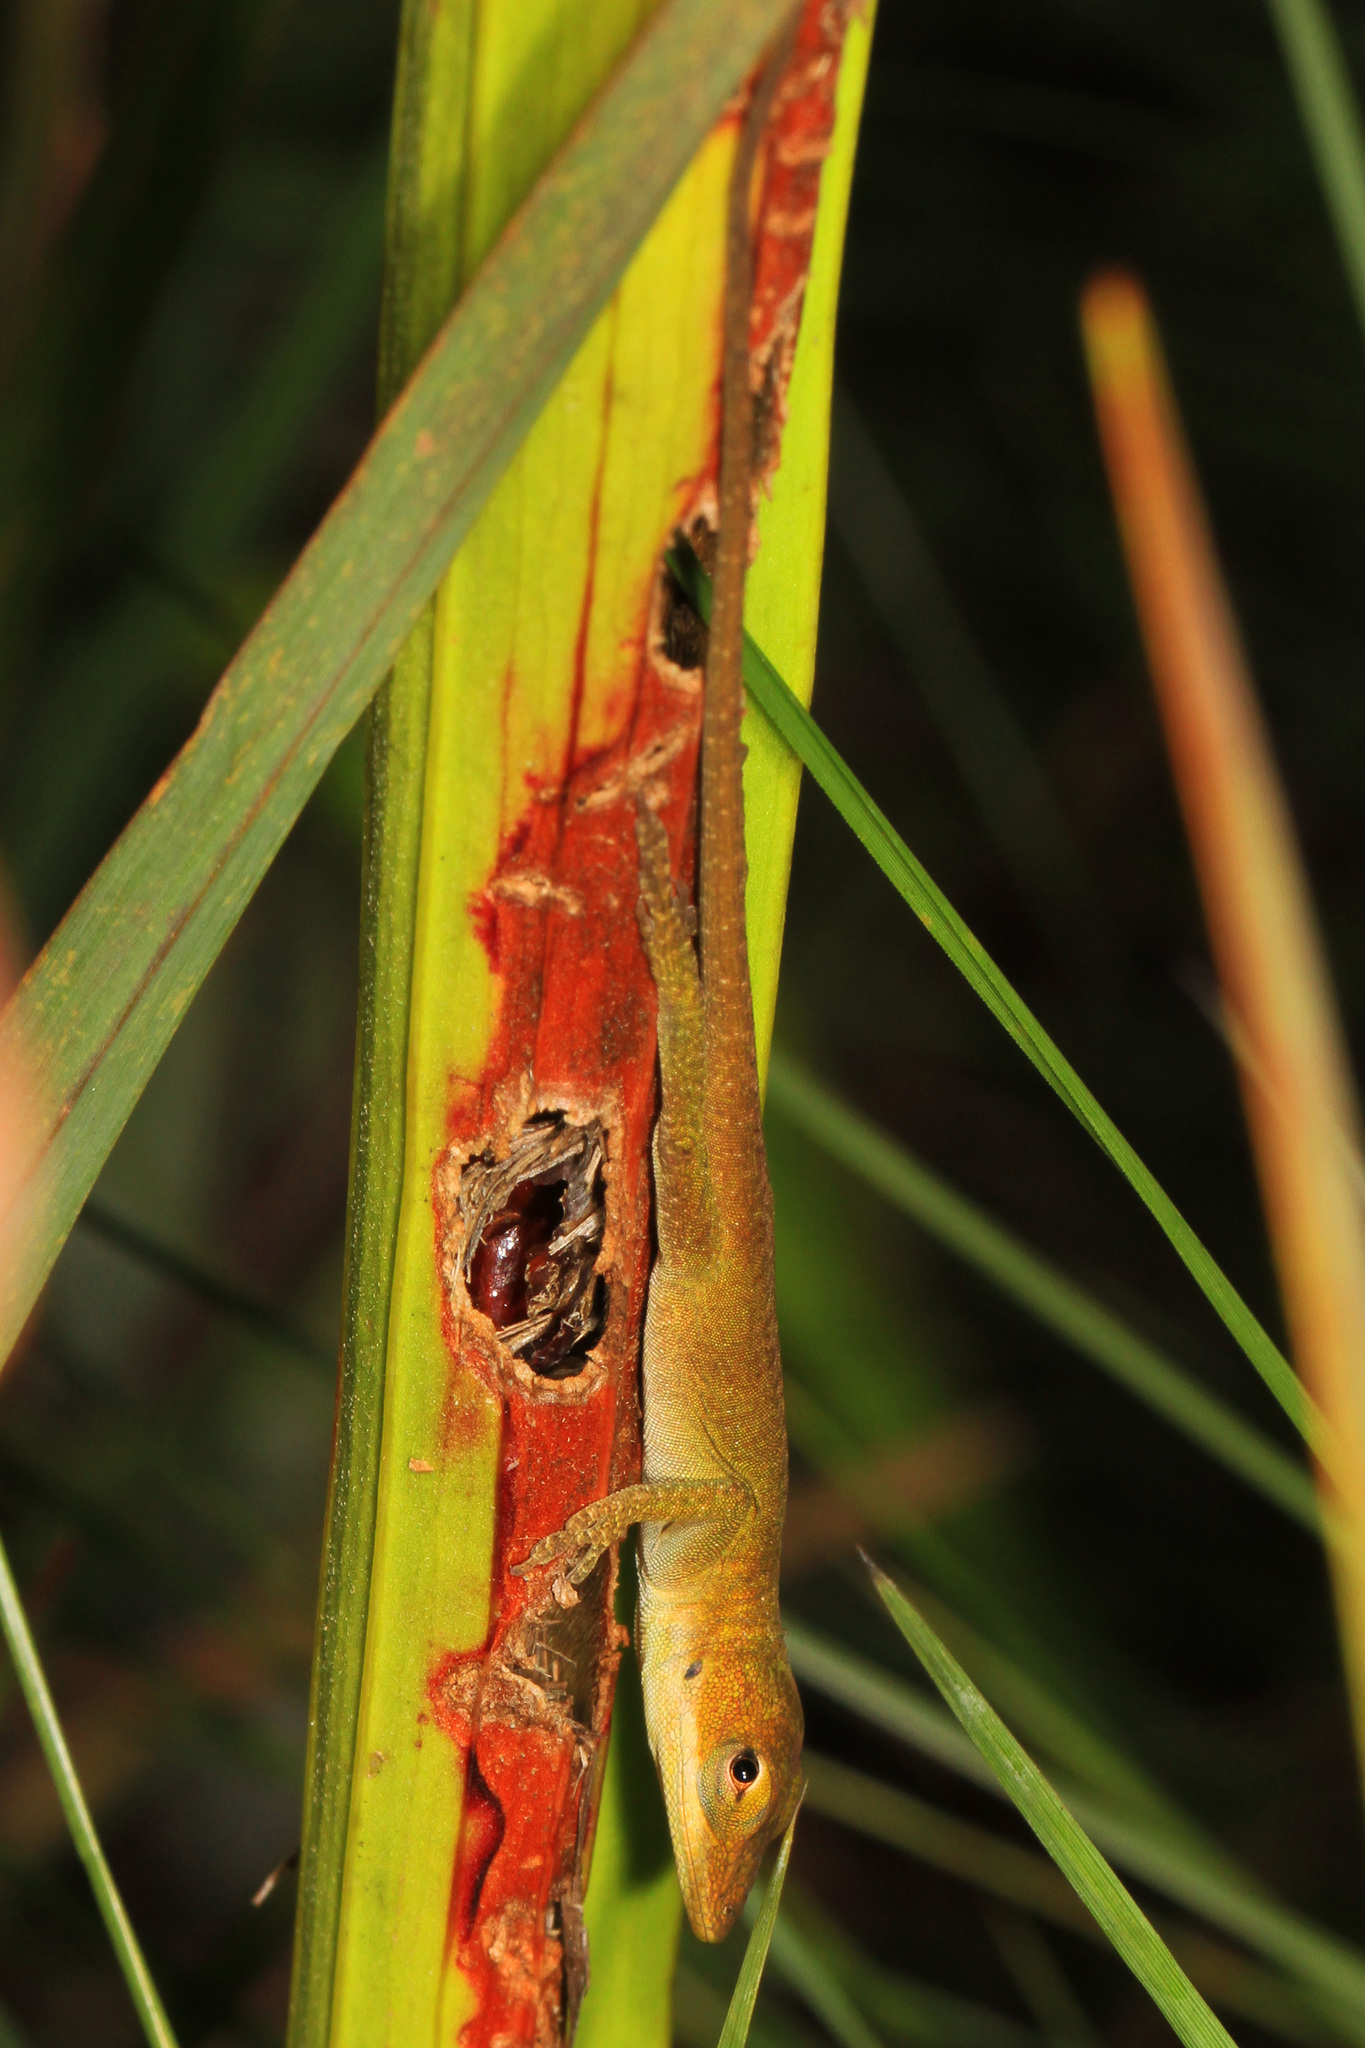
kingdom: Animalia
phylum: Chordata
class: Squamata
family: Dactyloidae
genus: Anolis
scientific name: Anolis carolinensis
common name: Green anole
